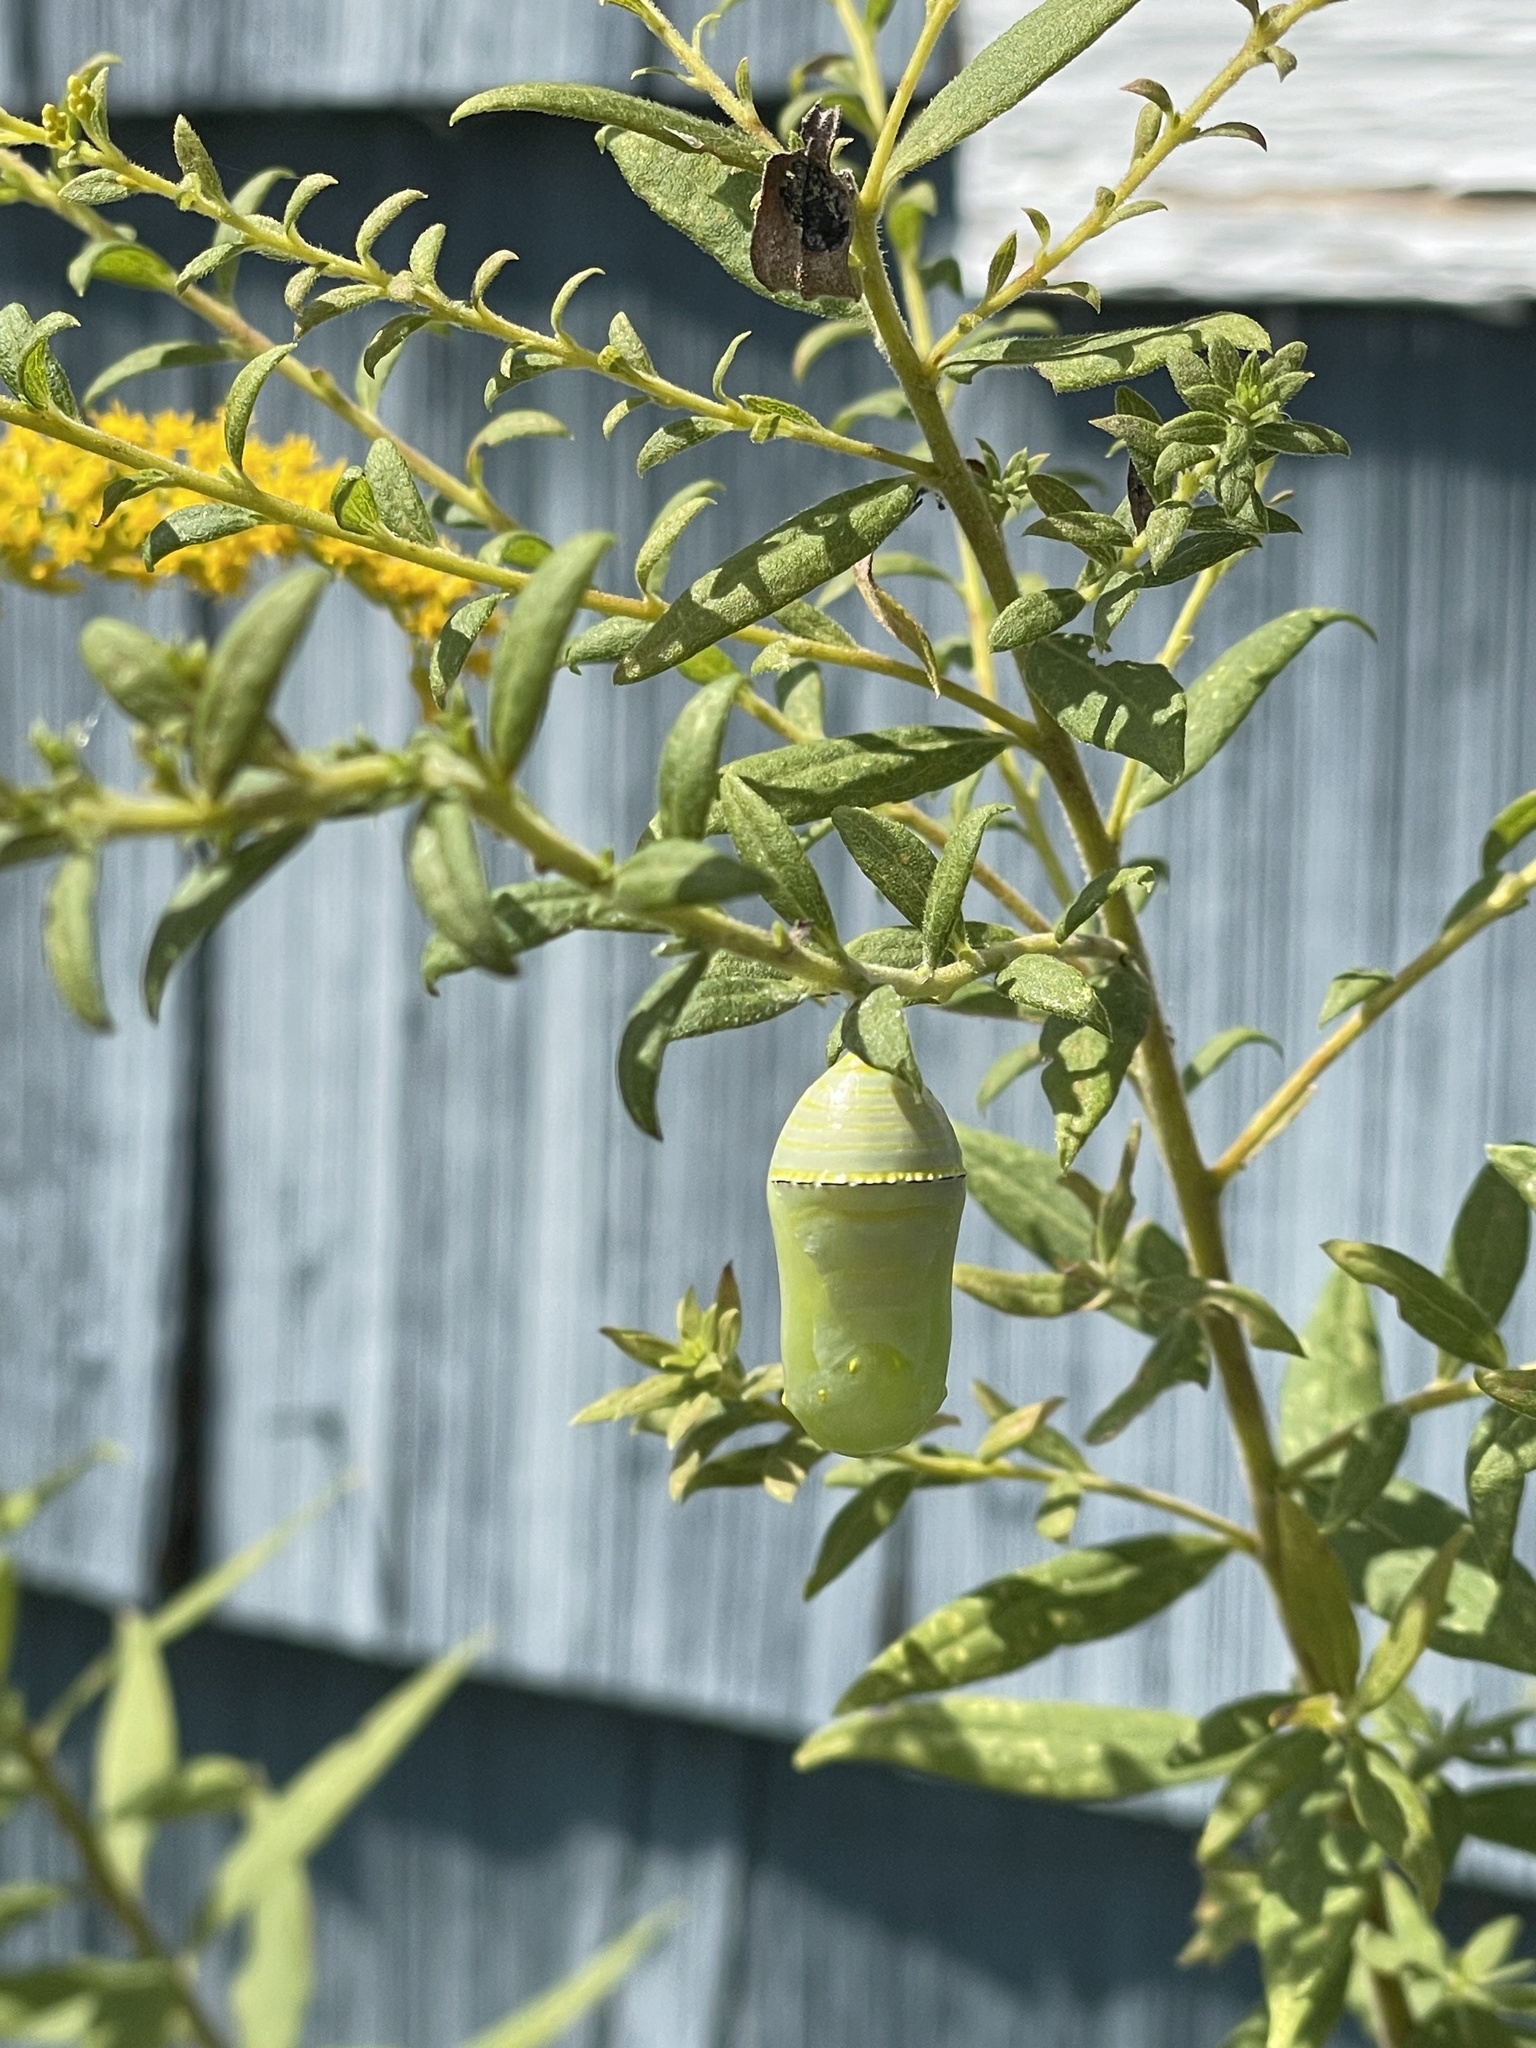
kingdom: Animalia
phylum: Arthropoda
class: Insecta
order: Lepidoptera
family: Nymphalidae
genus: Danaus
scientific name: Danaus plexippus
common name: Monarch
